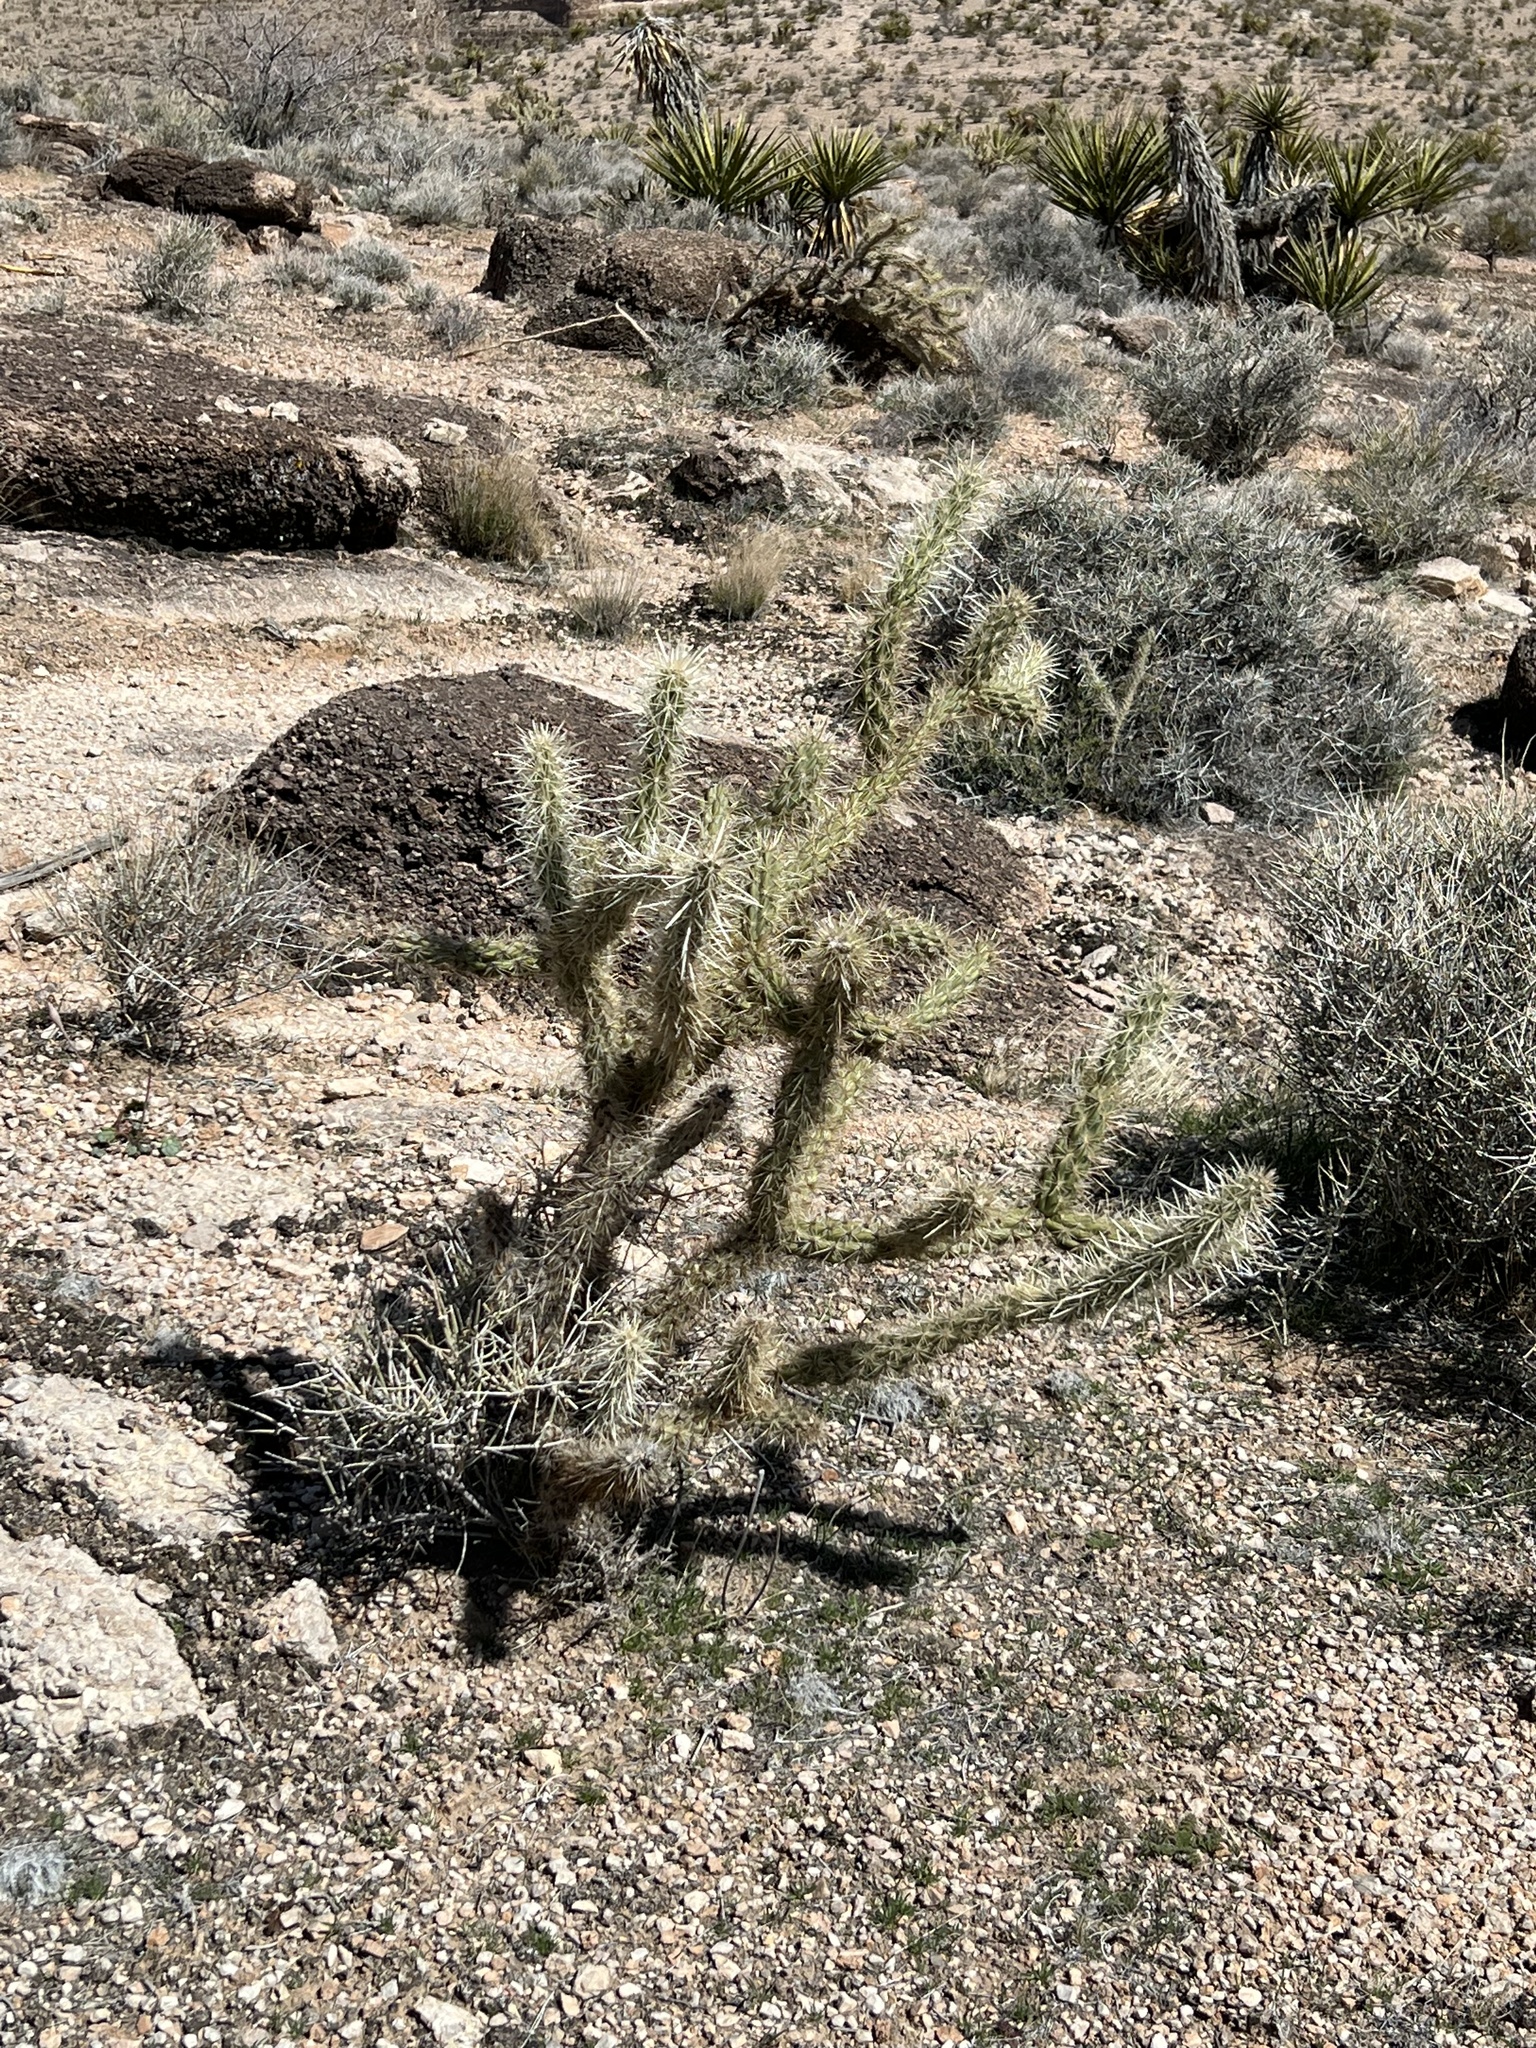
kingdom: Plantae
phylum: Tracheophyta
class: Magnoliopsida
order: Caryophyllales
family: Cactaceae
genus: Cylindropuntia
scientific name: Cylindropuntia acanthocarpa
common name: Buckhorn cholla
